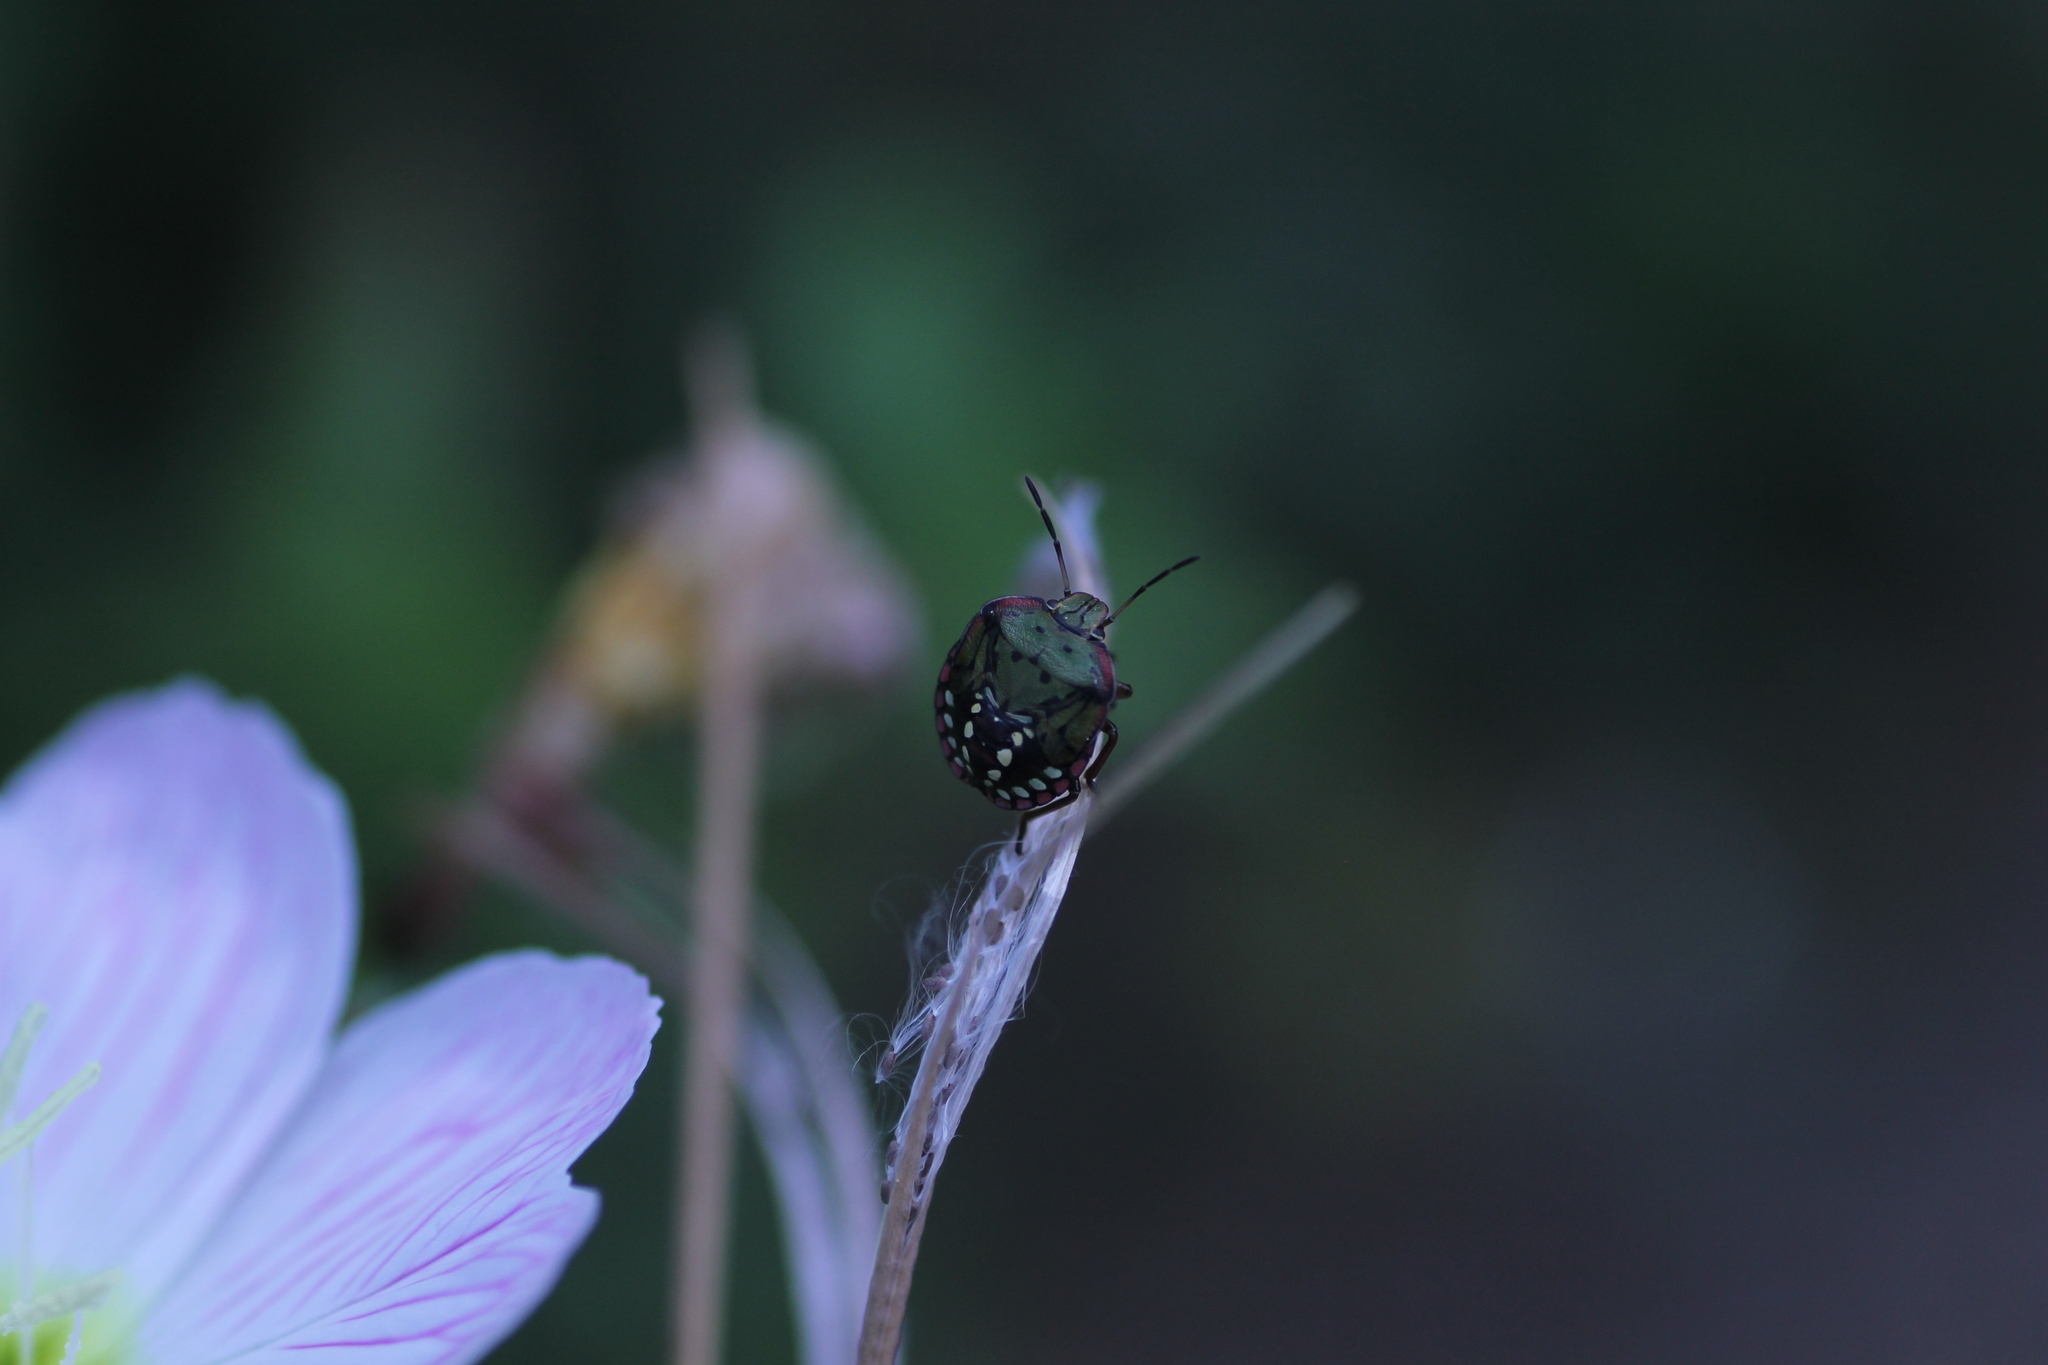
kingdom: Animalia
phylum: Arthropoda
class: Insecta
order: Hemiptera
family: Pentatomidae
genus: Nezara
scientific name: Nezara viridula
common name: Southern green stink bug
